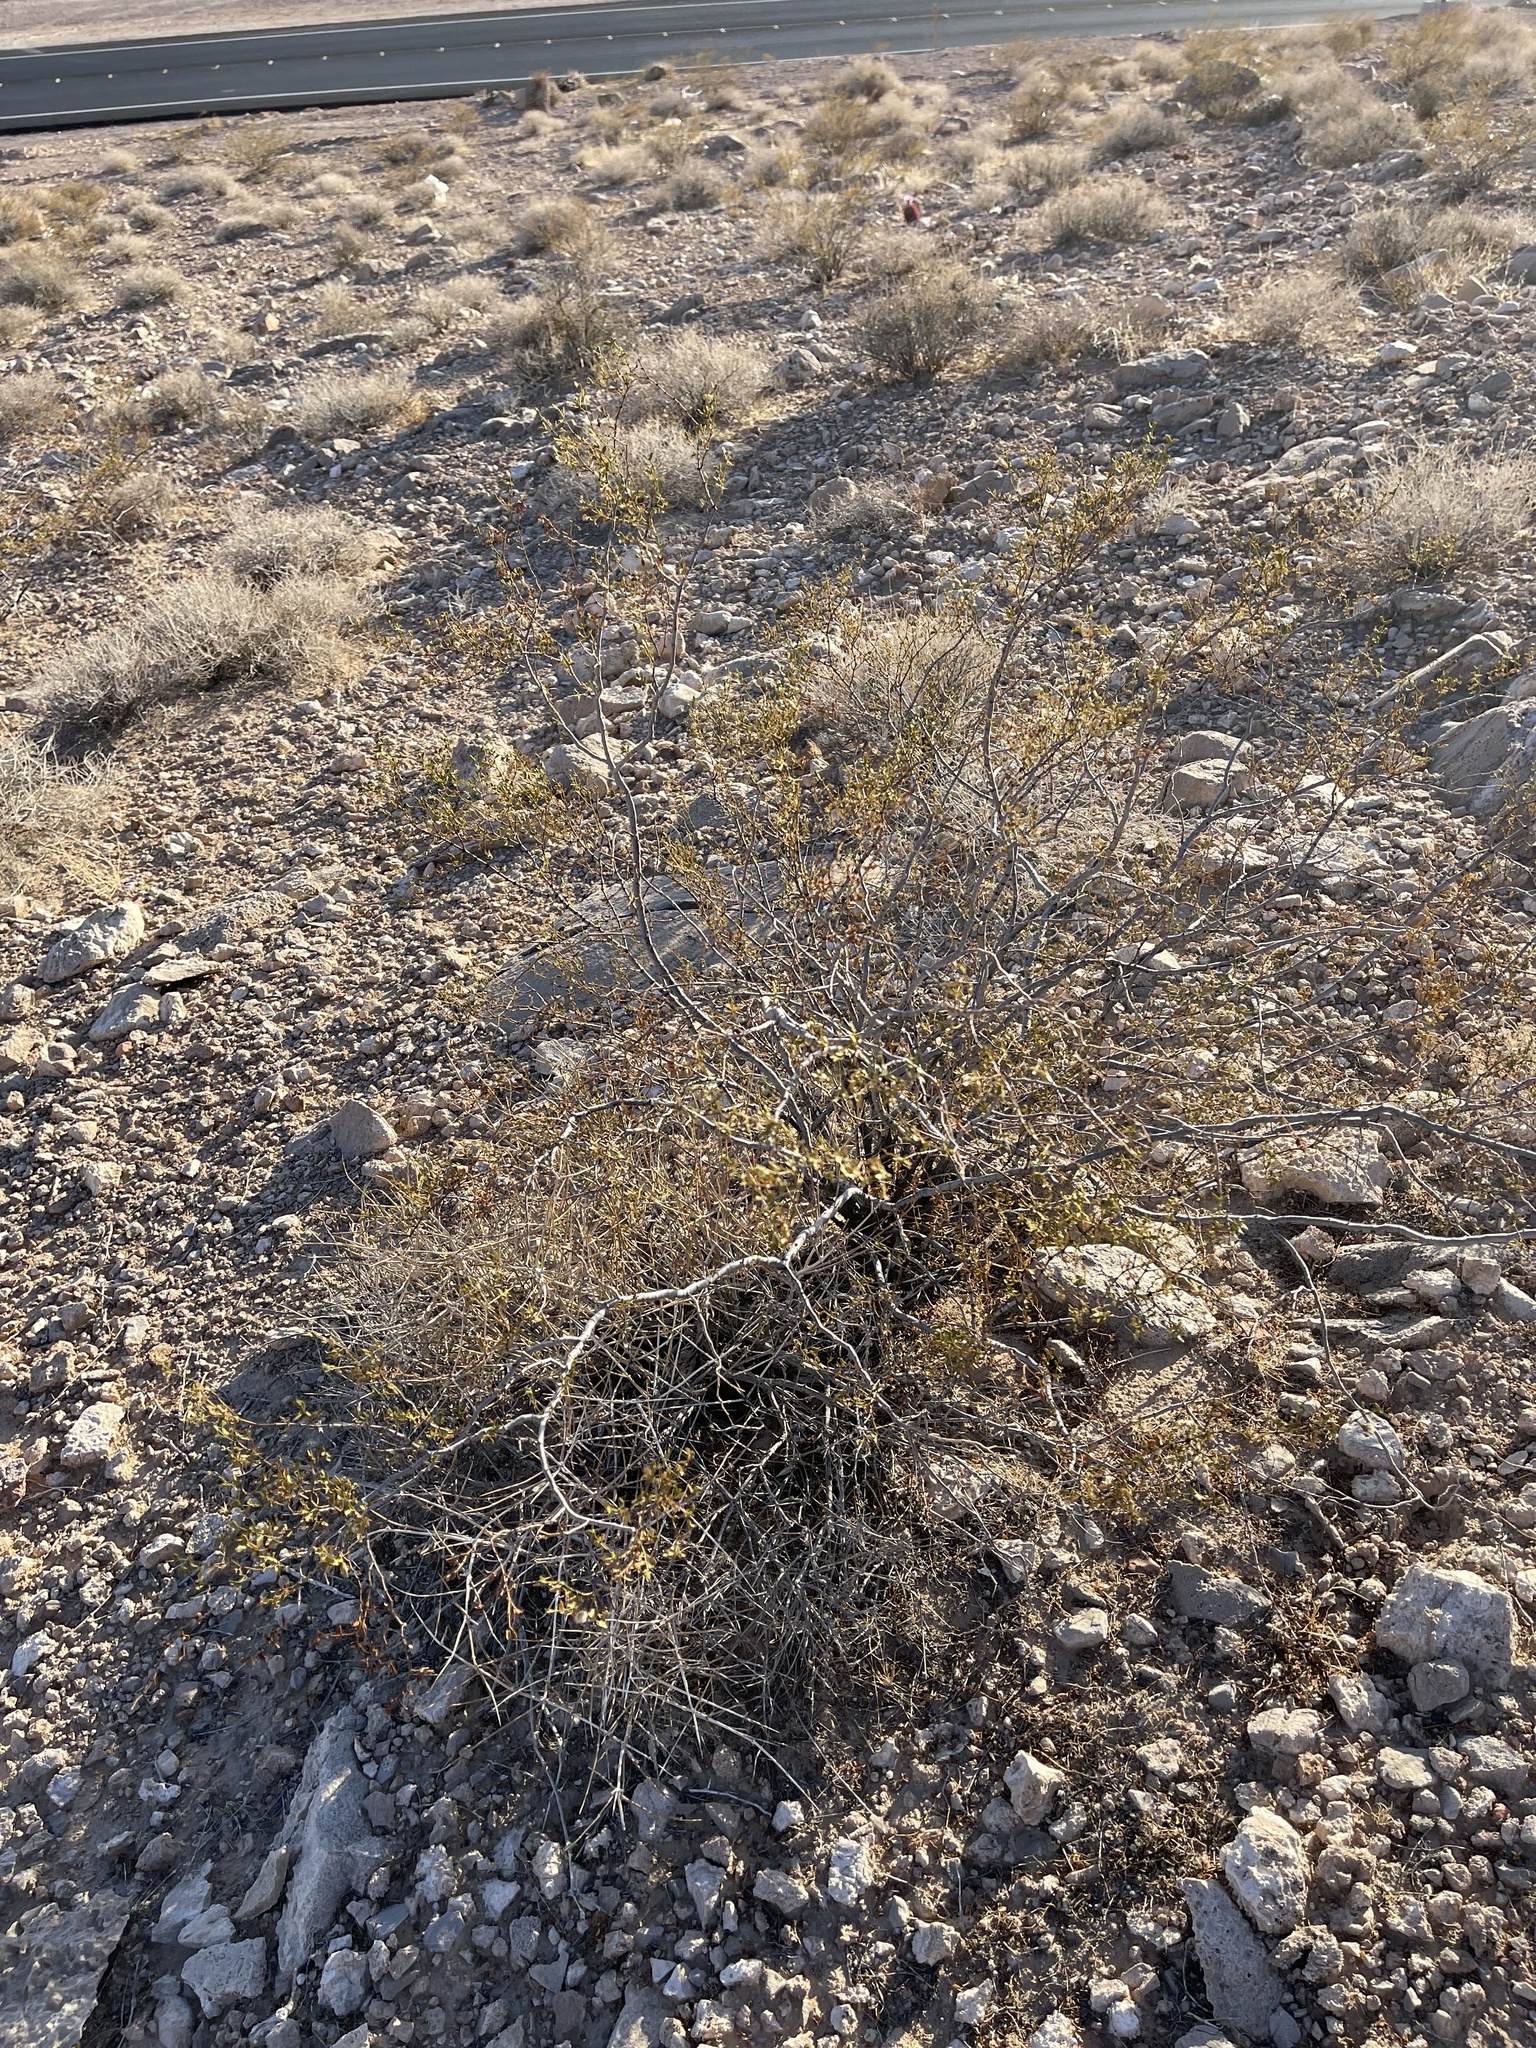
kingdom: Plantae
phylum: Tracheophyta
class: Magnoliopsida
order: Zygophyllales
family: Zygophyllaceae
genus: Larrea
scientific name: Larrea tridentata
